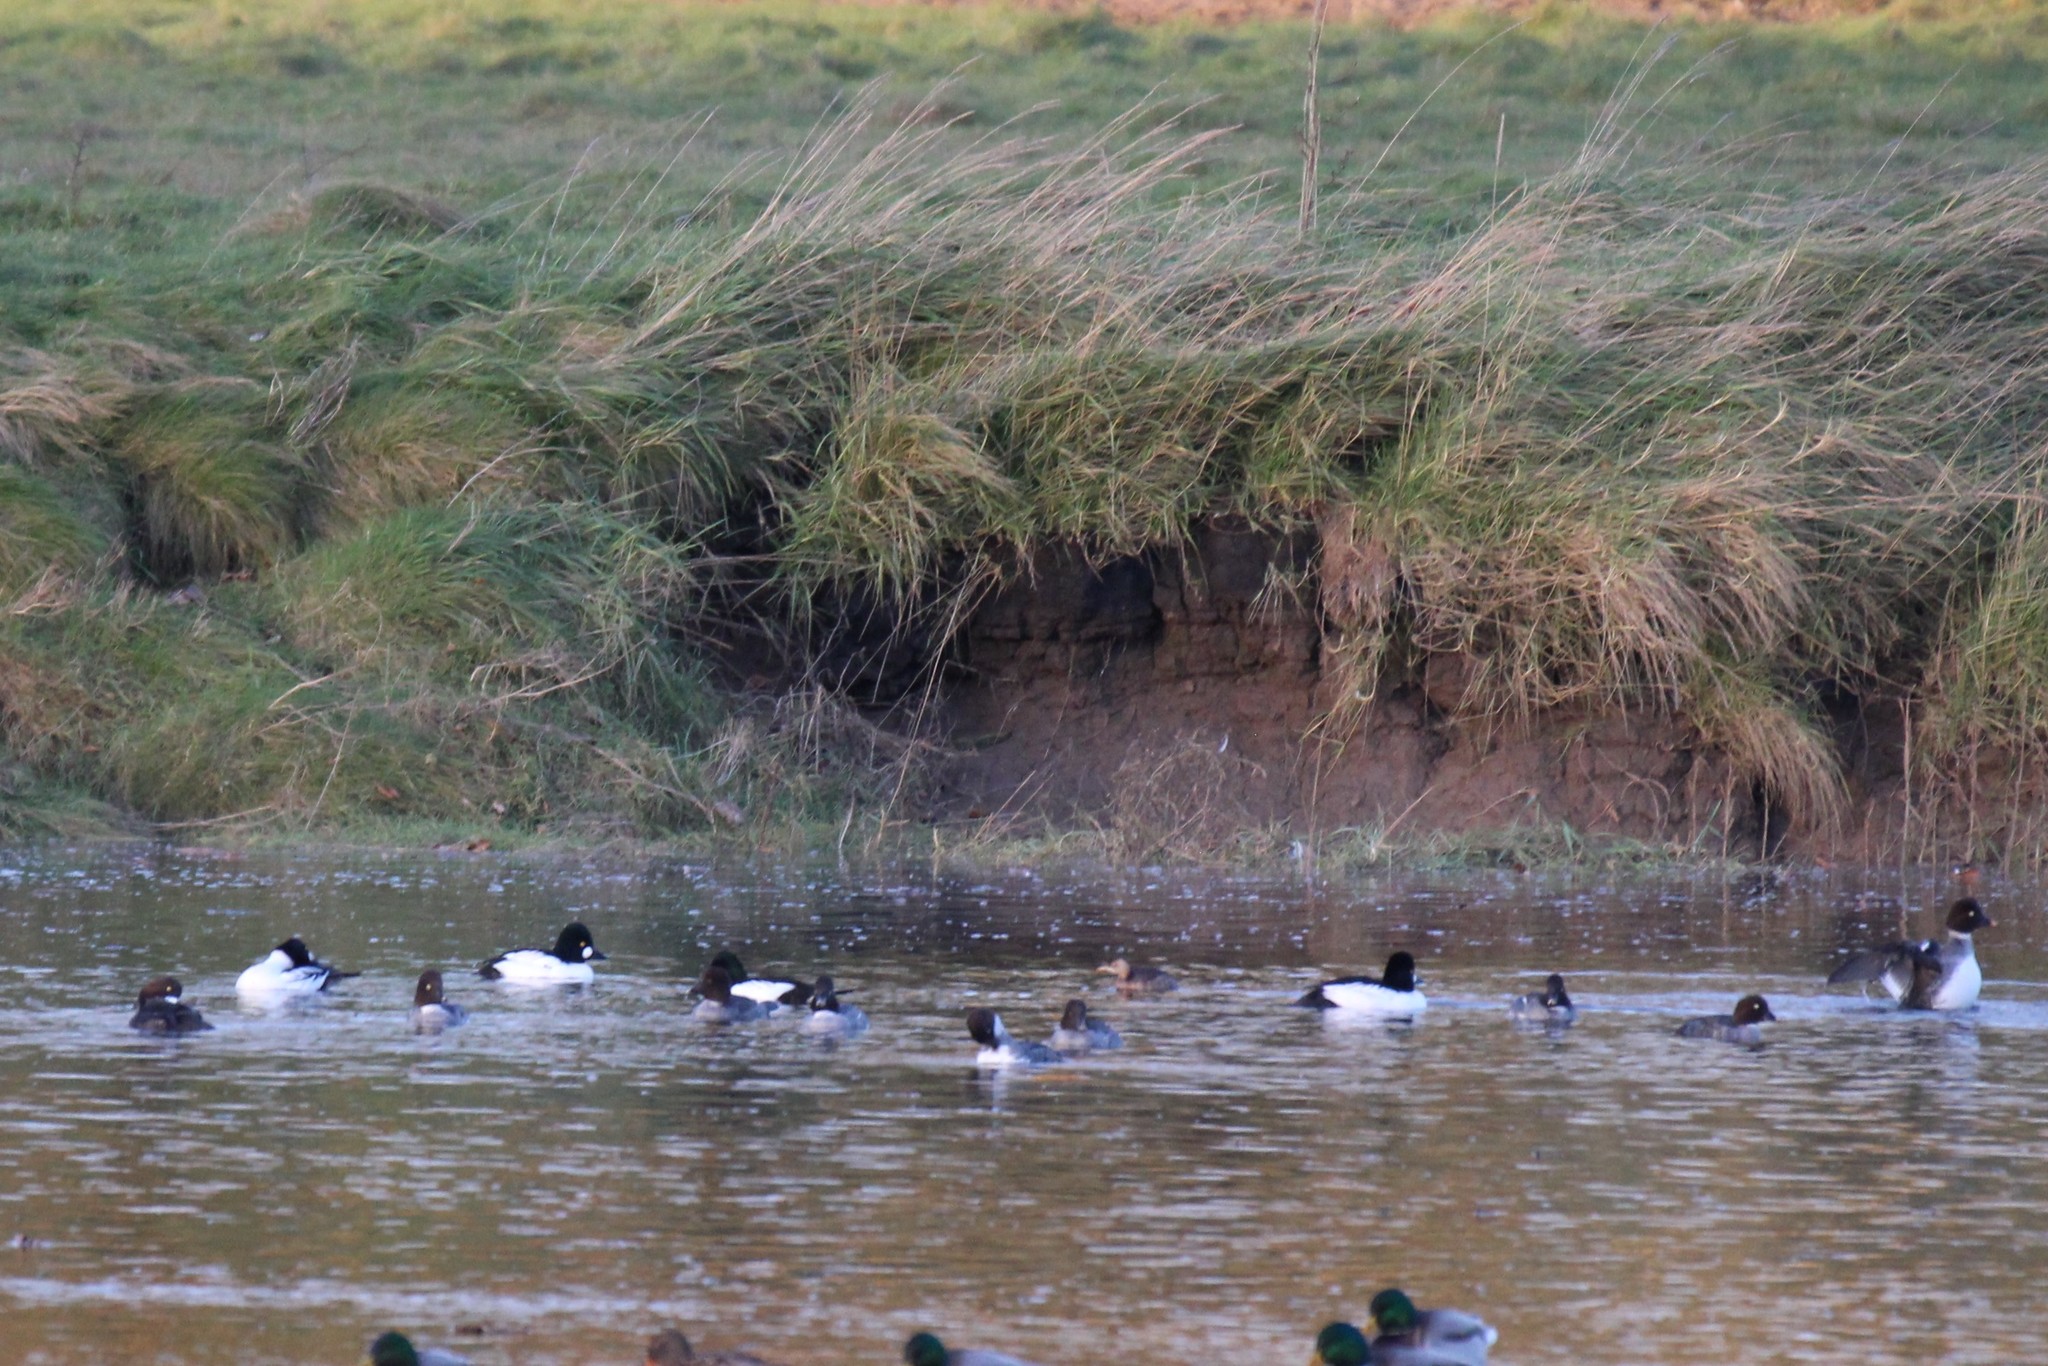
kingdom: Animalia
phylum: Chordata
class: Aves
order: Anseriformes
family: Anatidae
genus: Bucephala
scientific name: Bucephala clangula
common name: Common goldeneye
